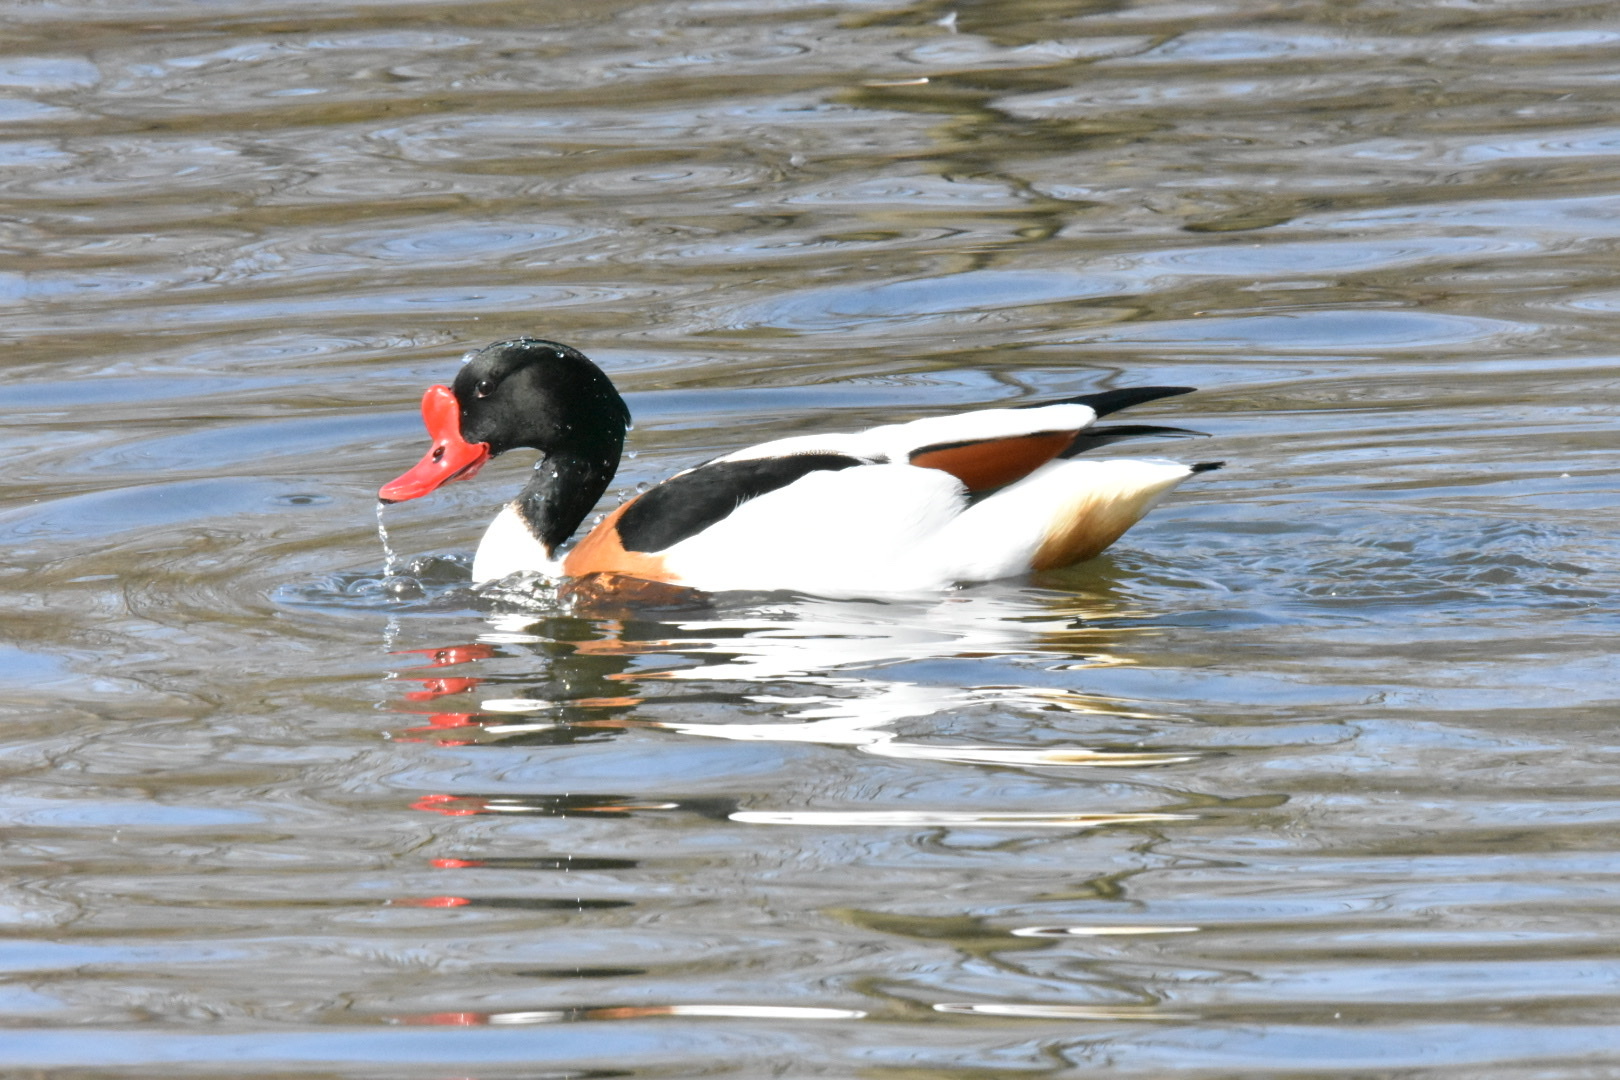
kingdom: Animalia
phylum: Chordata
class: Aves
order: Anseriformes
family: Anatidae
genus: Tadorna
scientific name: Tadorna tadorna
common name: Common shelduck
